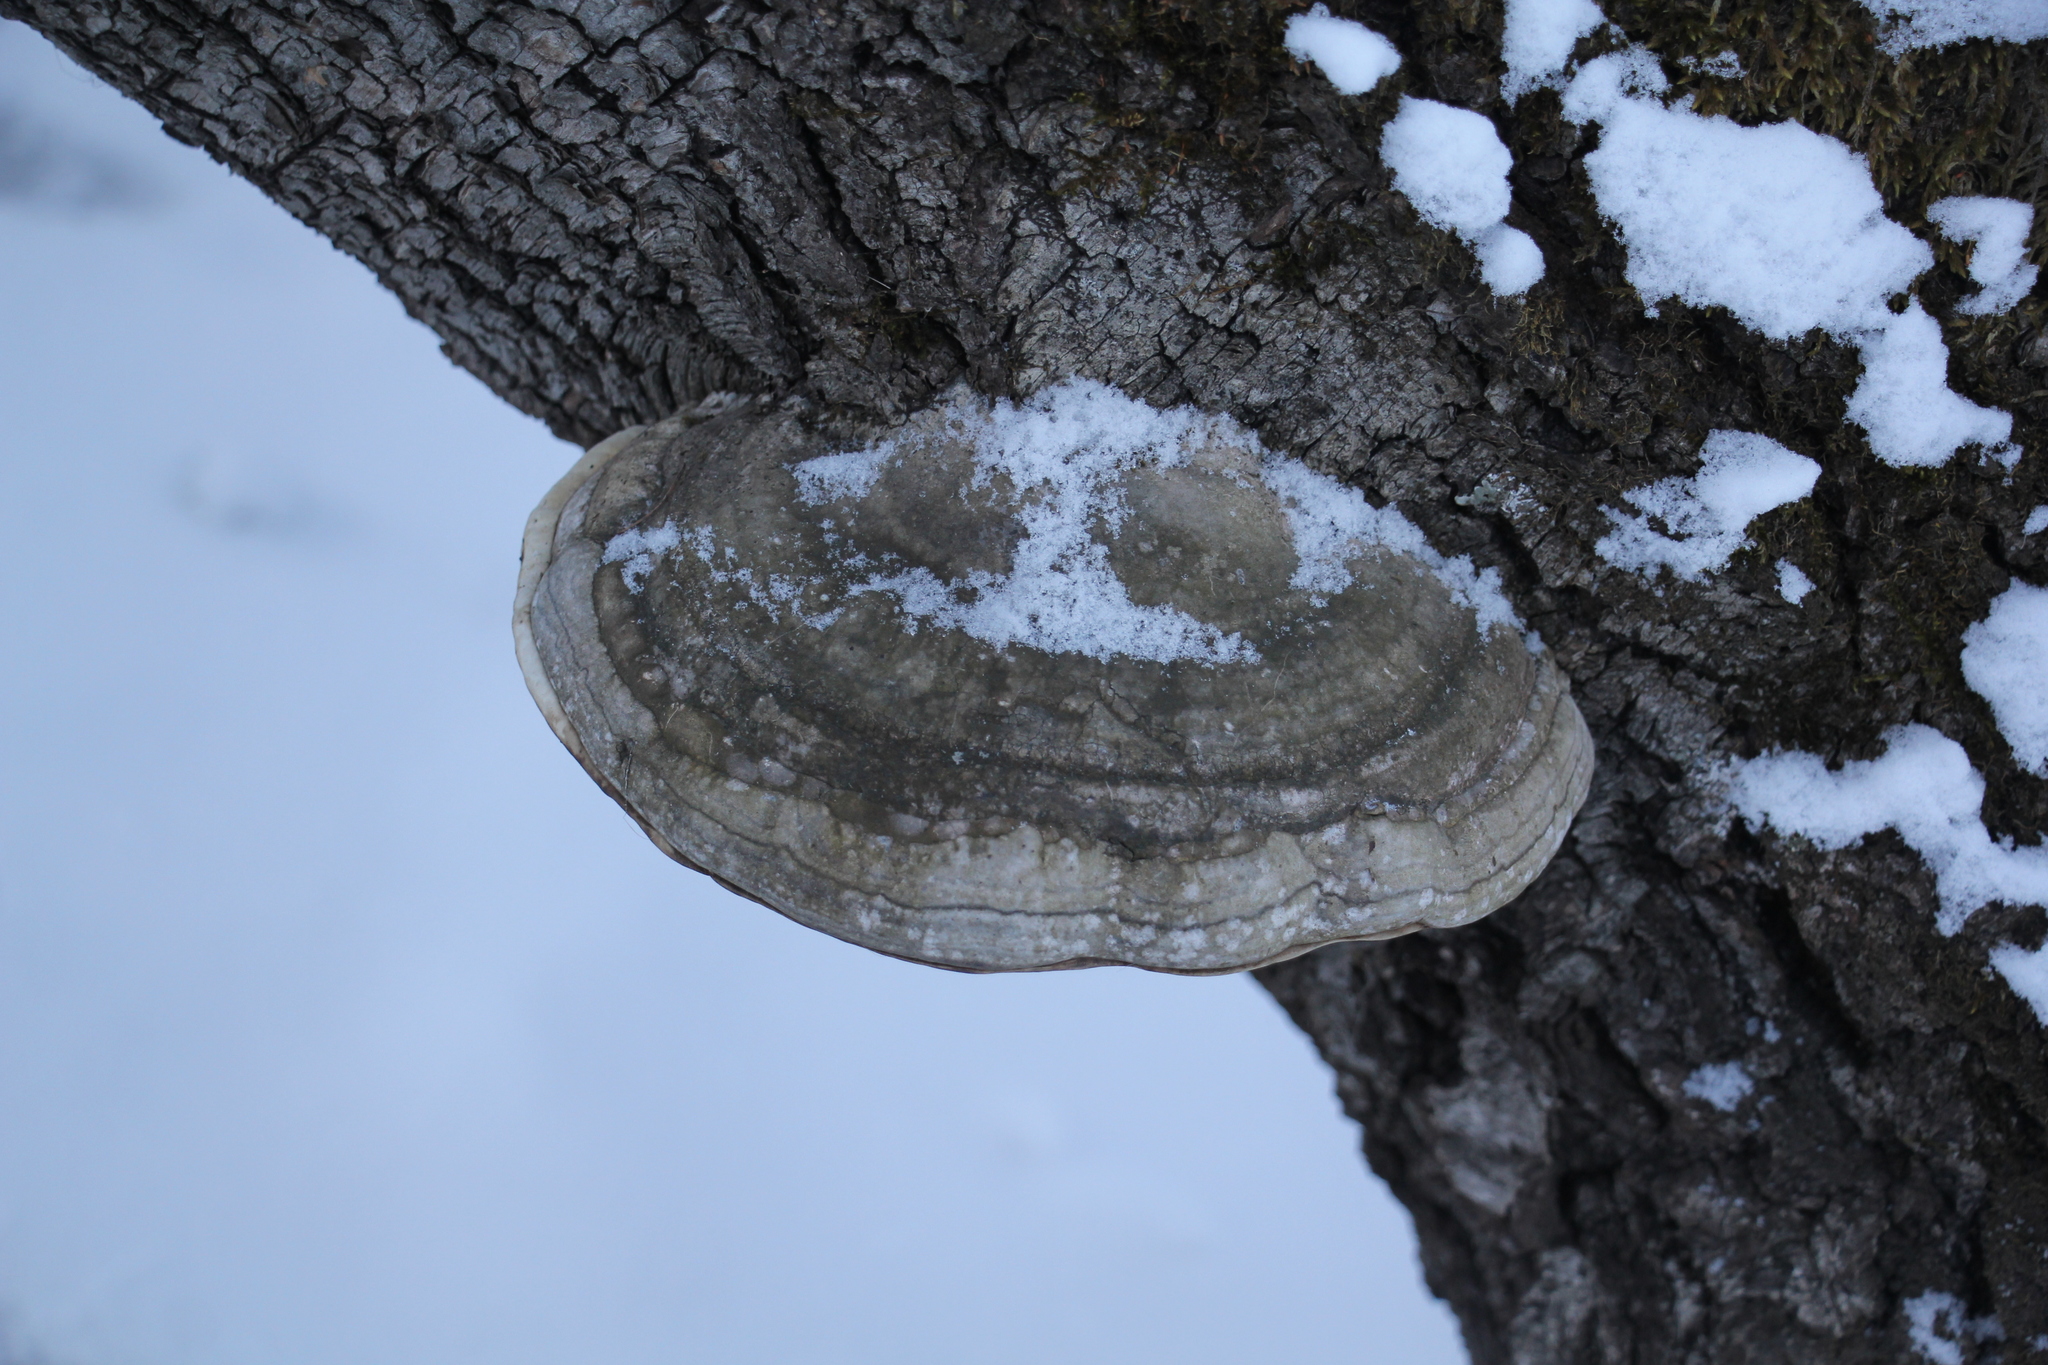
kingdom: Fungi
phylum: Basidiomycota
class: Agaricomycetes
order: Polyporales
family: Polyporaceae
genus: Fomes
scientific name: Fomes fomentarius
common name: Hoof fungus
